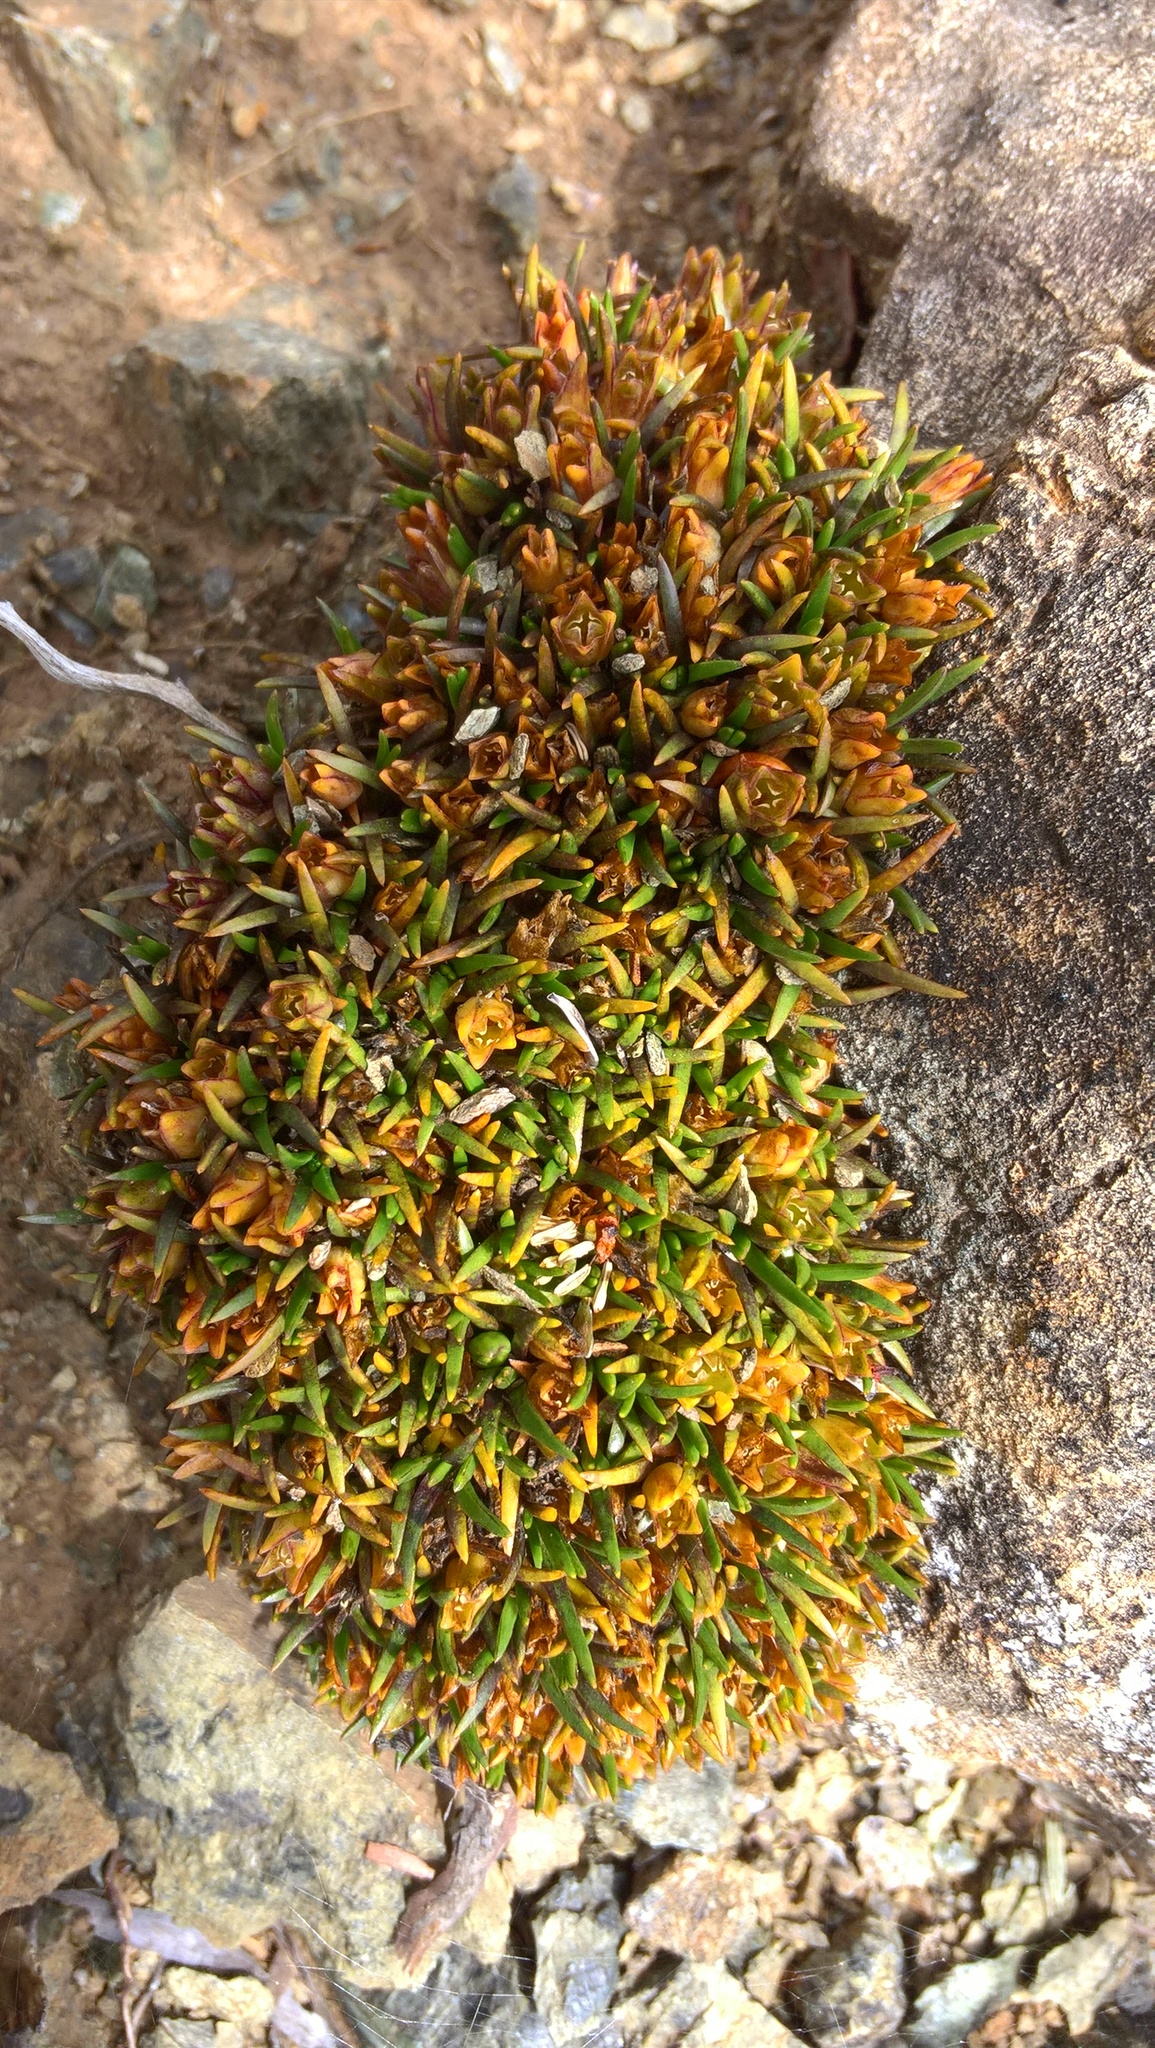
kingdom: Plantae
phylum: Tracheophyta
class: Magnoliopsida
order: Caryophyllales
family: Caryophyllaceae
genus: Colobanthus
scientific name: Colobanthus wallii
